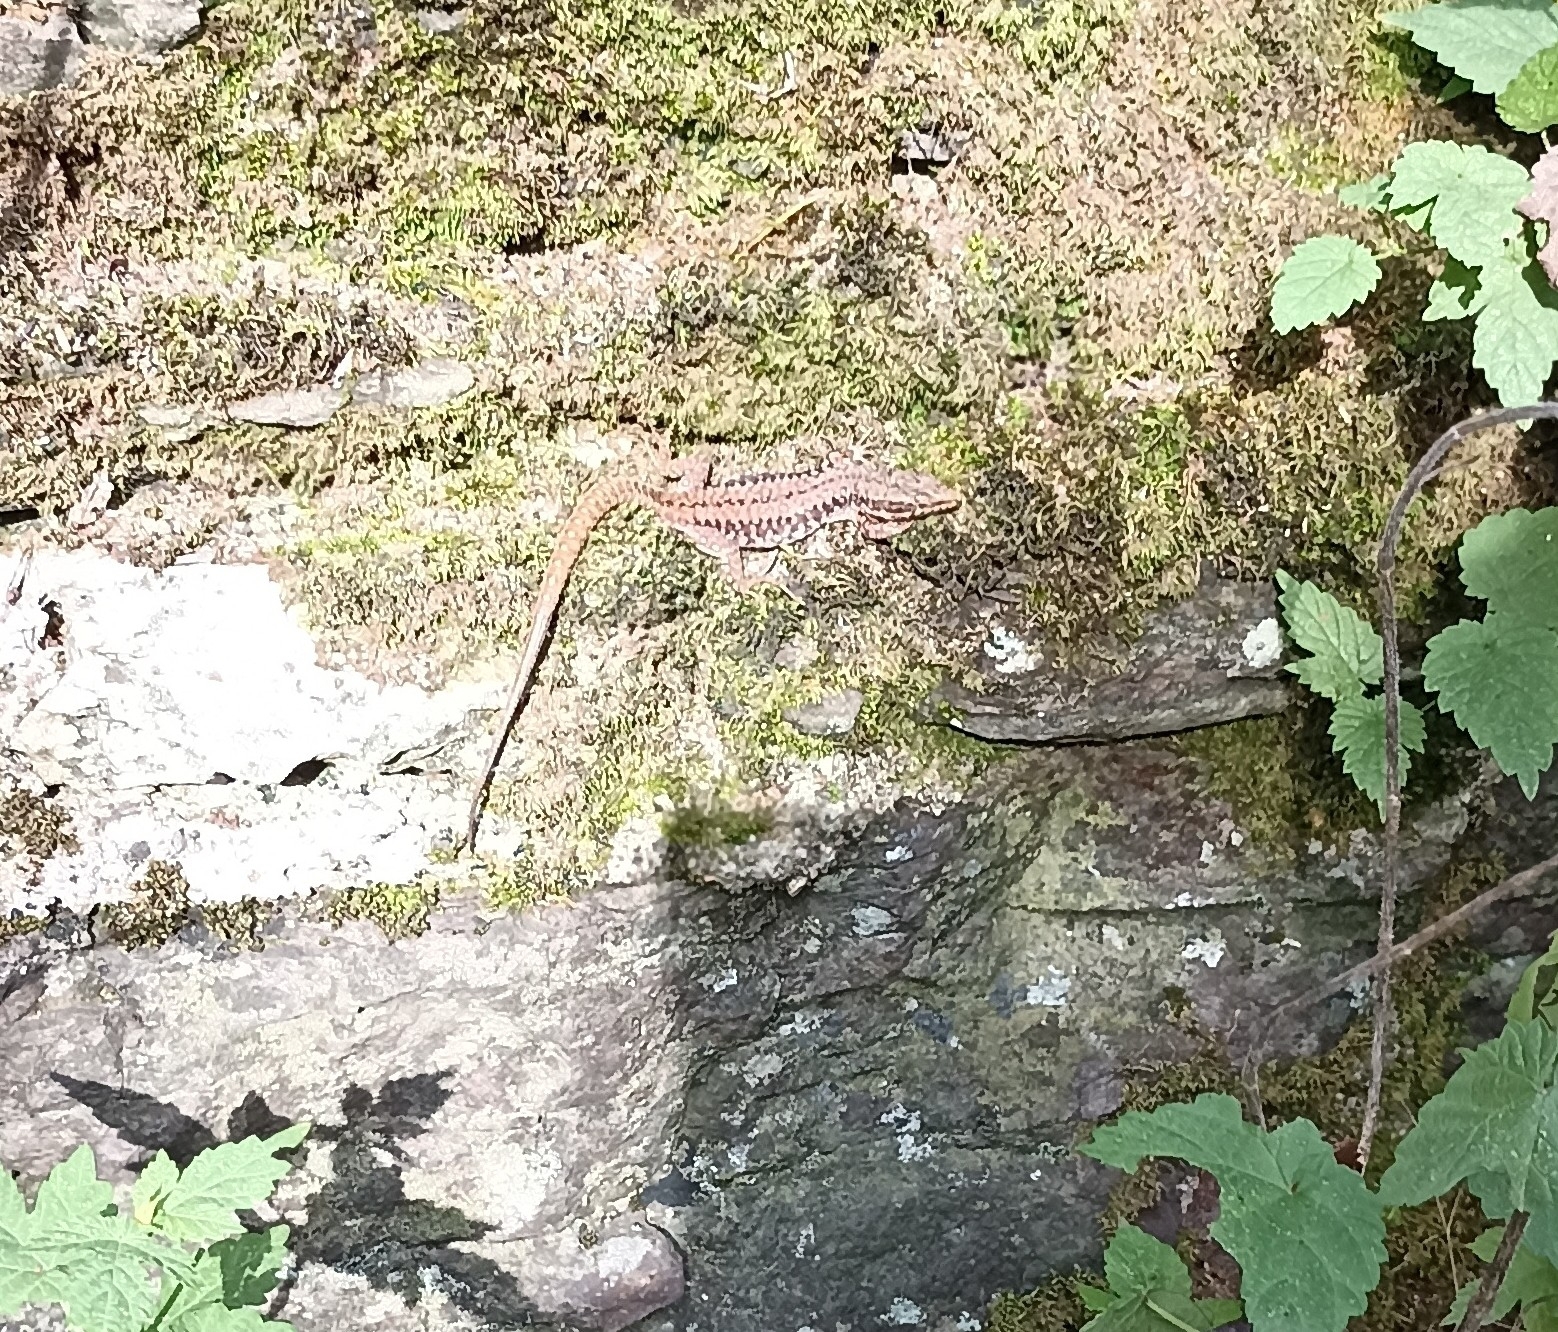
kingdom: Animalia
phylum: Chordata
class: Squamata
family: Lacertidae
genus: Podarcis
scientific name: Podarcis muralis
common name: Common wall lizard
